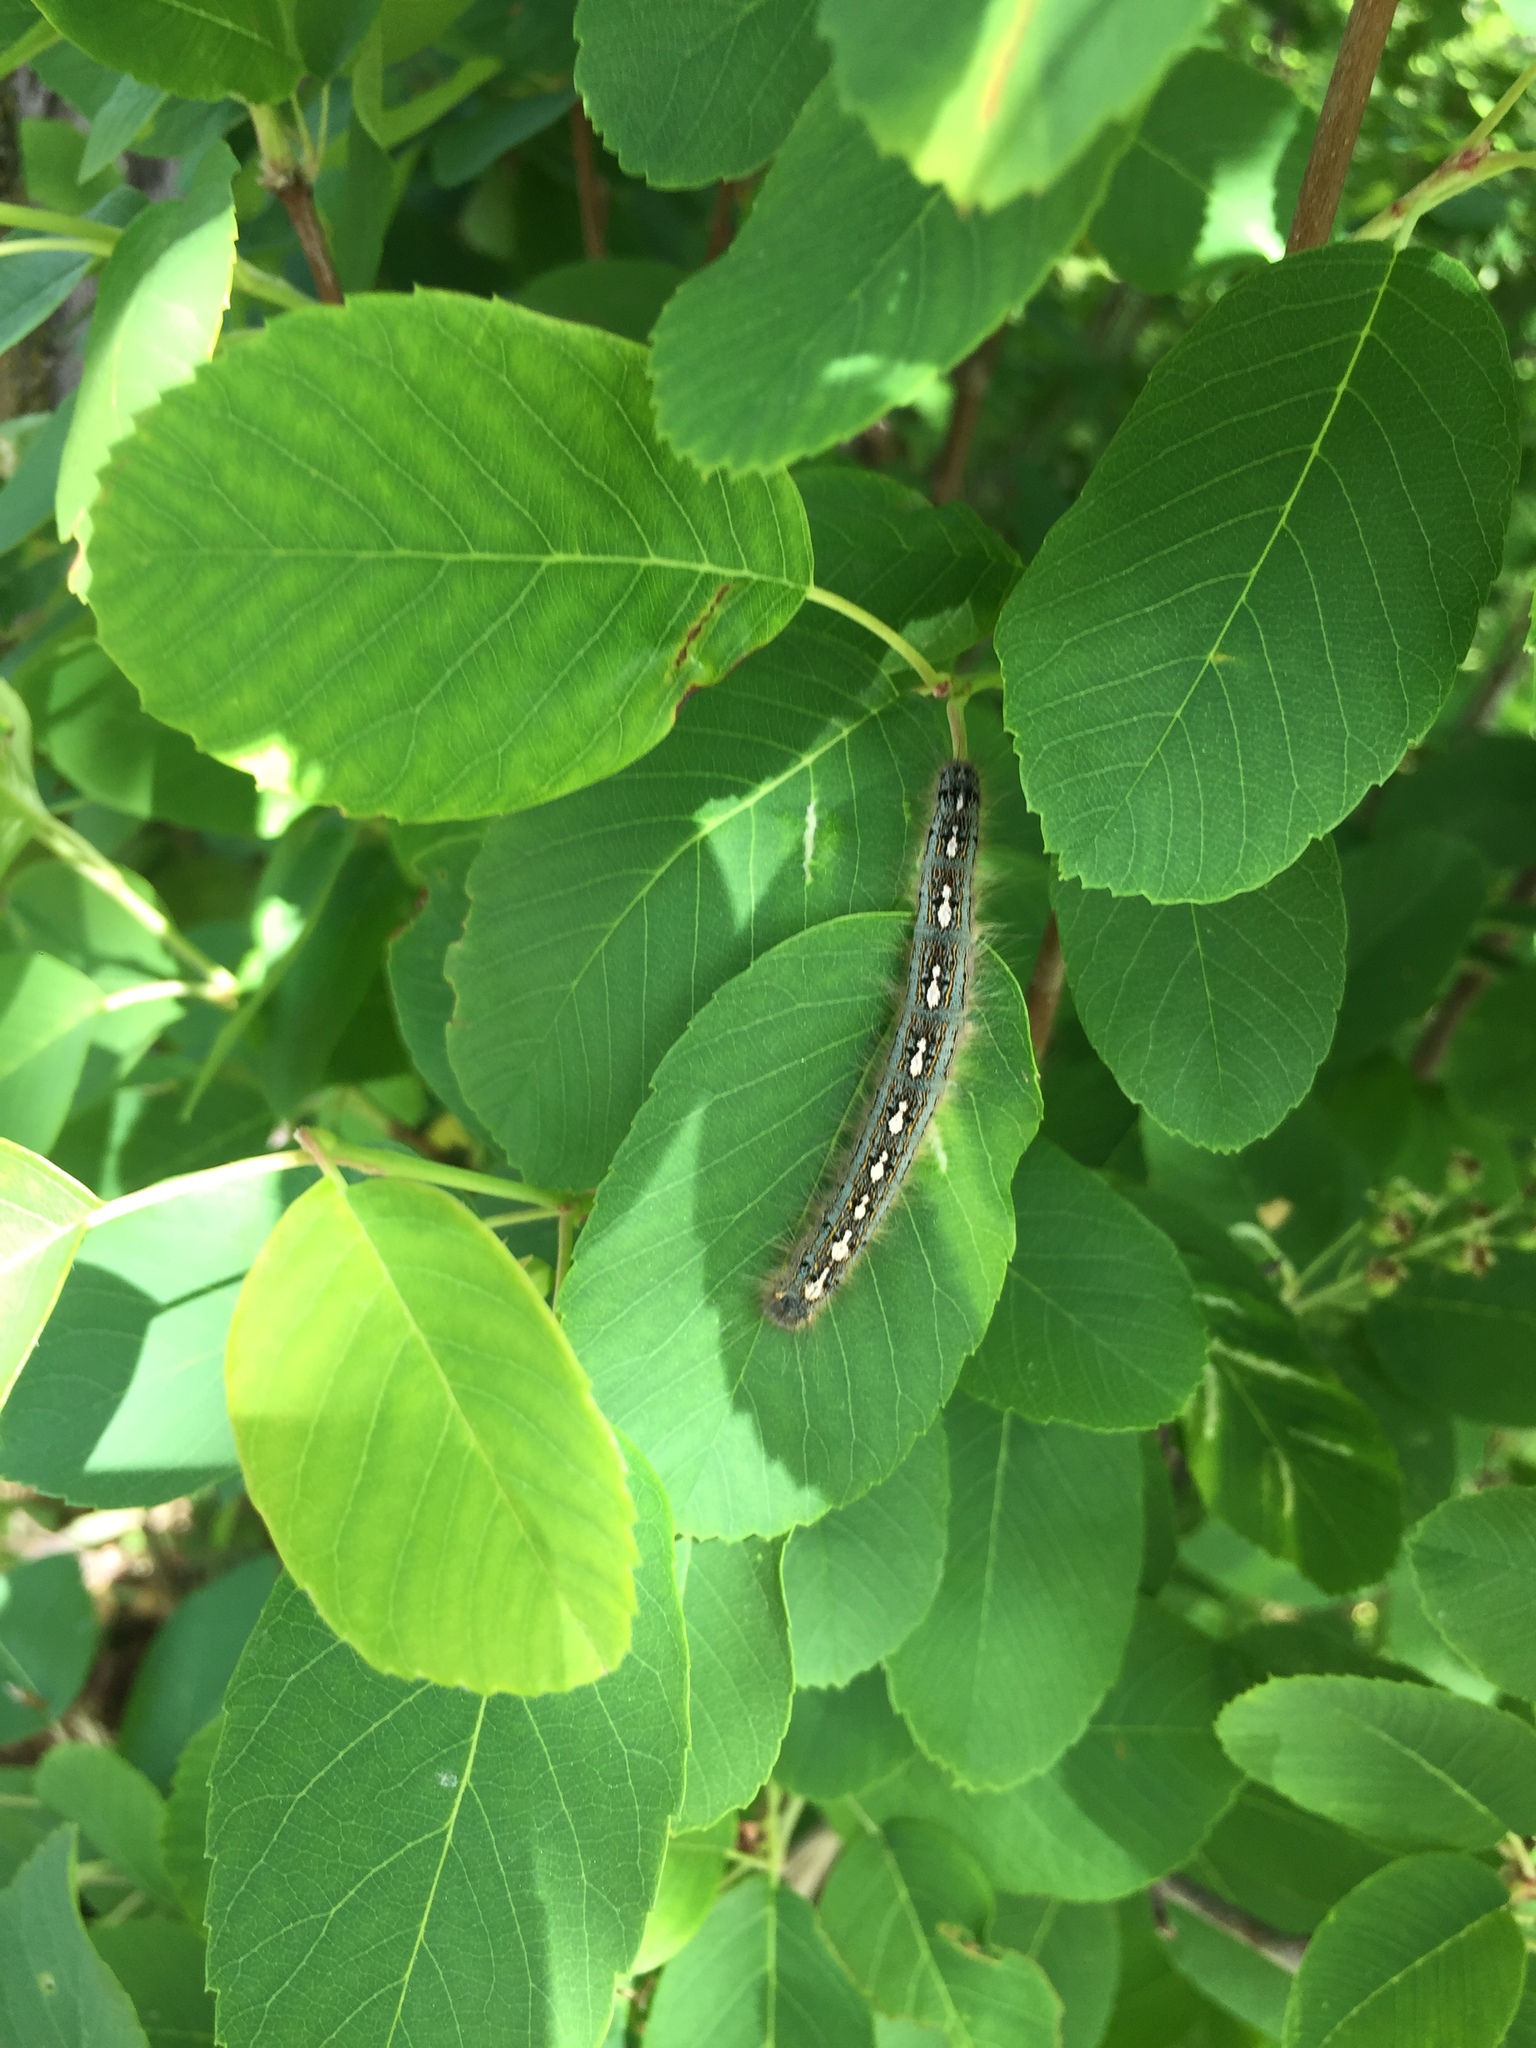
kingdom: Animalia
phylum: Arthropoda
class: Insecta
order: Lepidoptera
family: Lasiocampidae
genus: Malacosoma
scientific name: Malacosoma disstria
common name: Forest tent caterpillar
